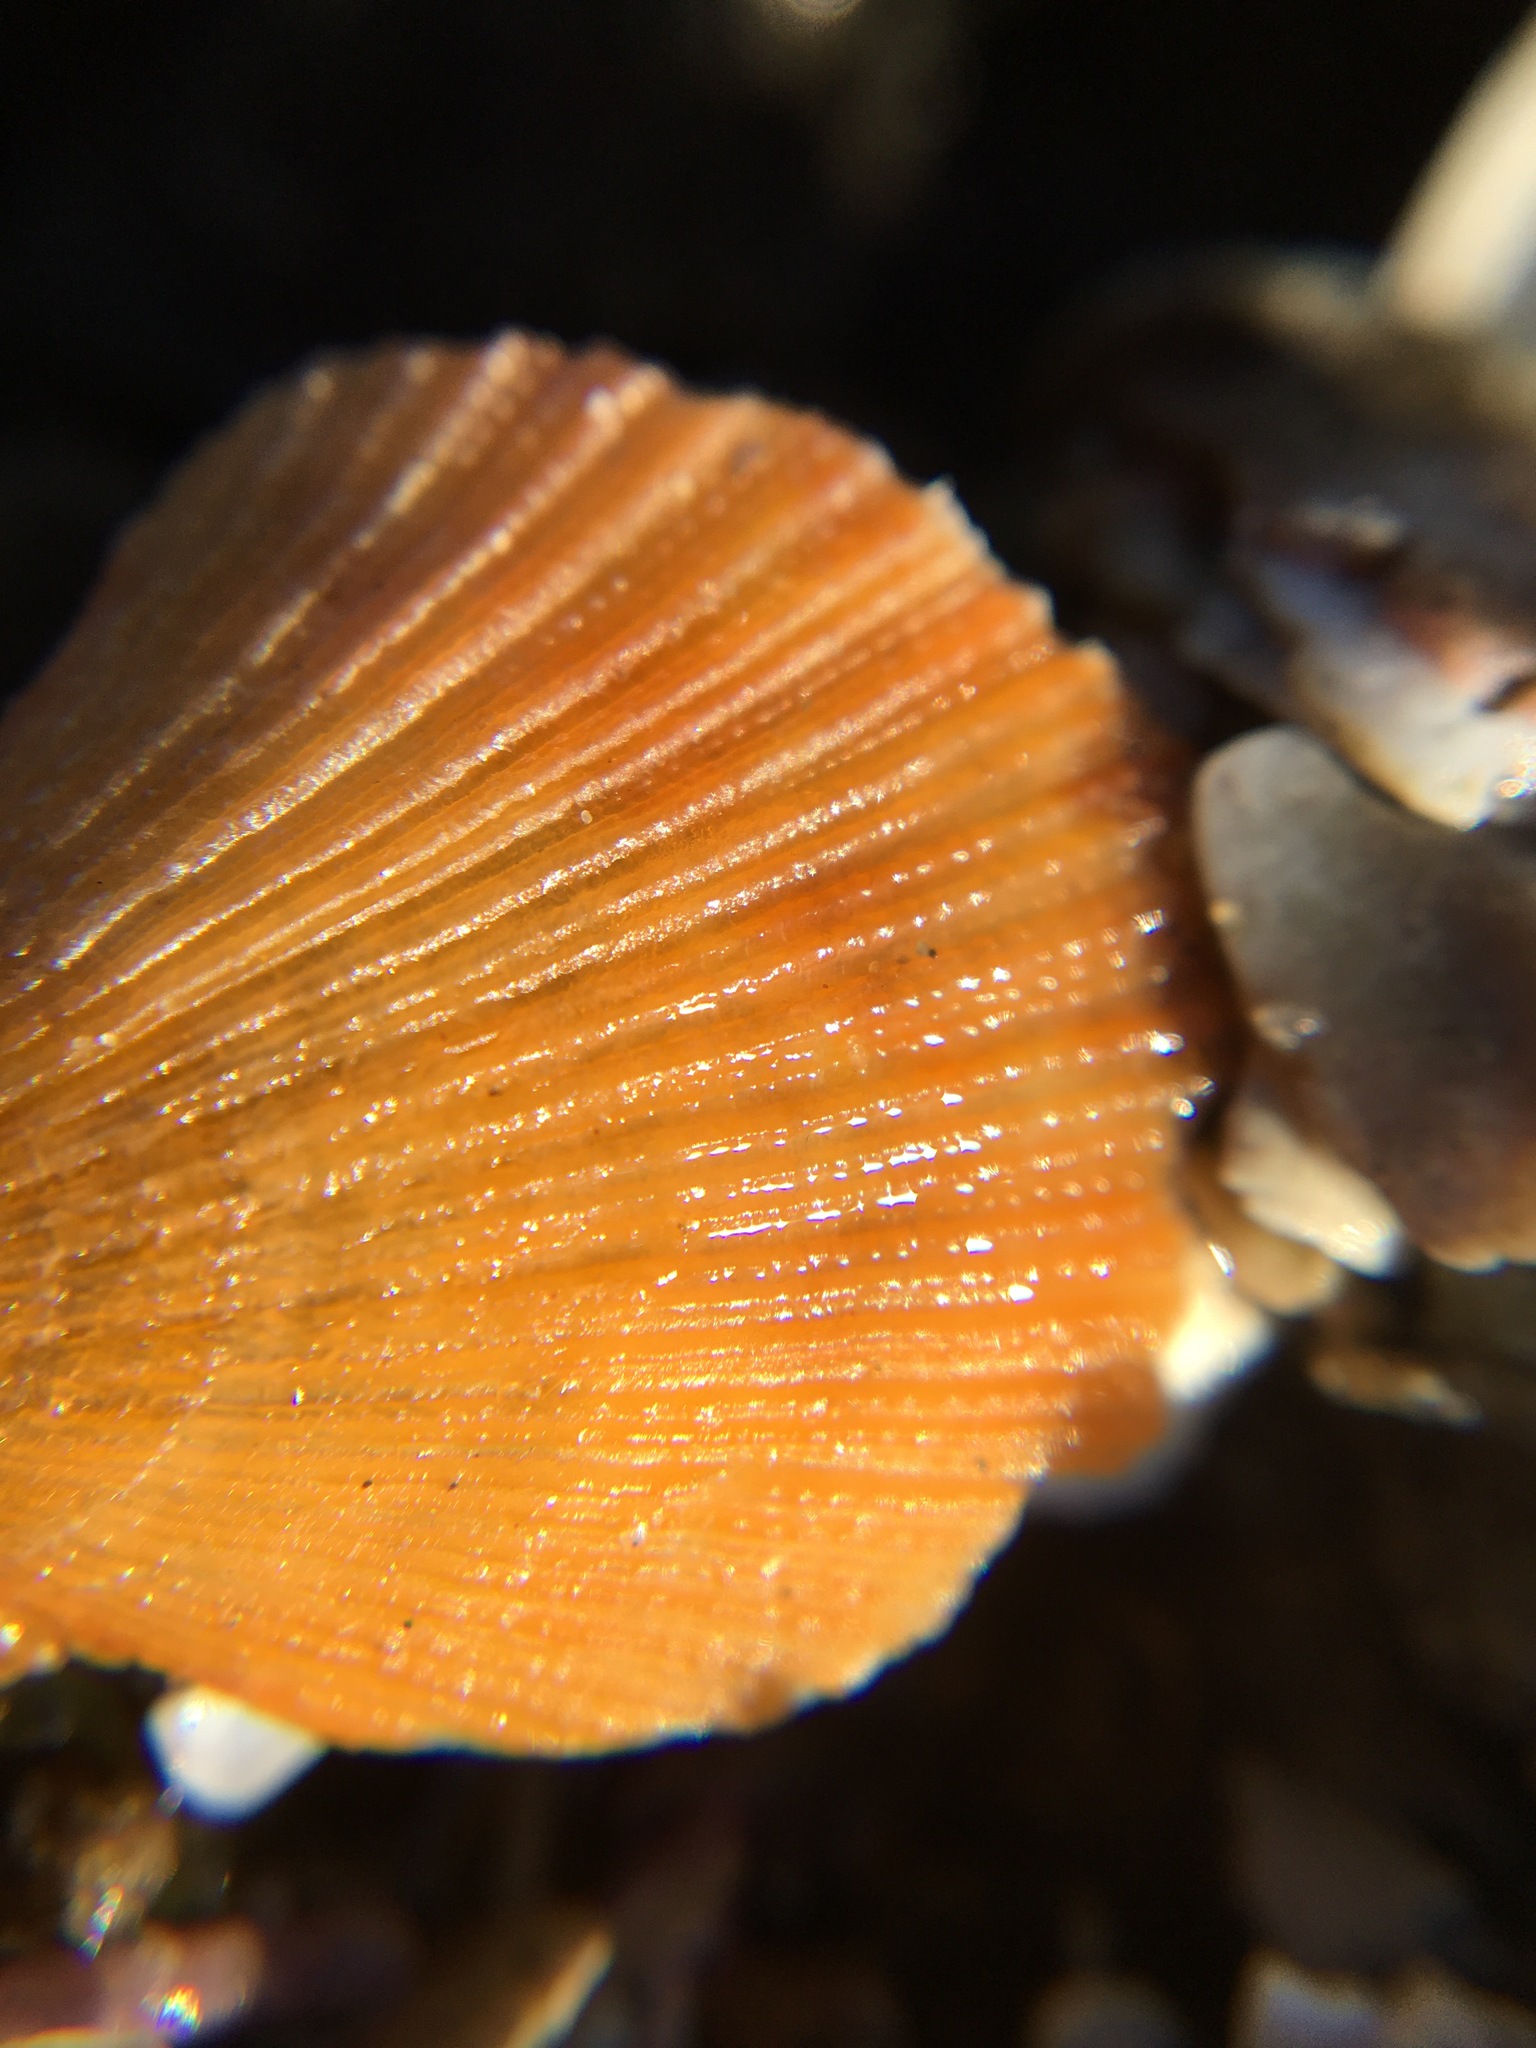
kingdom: Animalia
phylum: Mollusca
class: Bivalvia
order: Pectinida
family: Pectinidae
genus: Crassadoma
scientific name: Crassadoma gigantea
